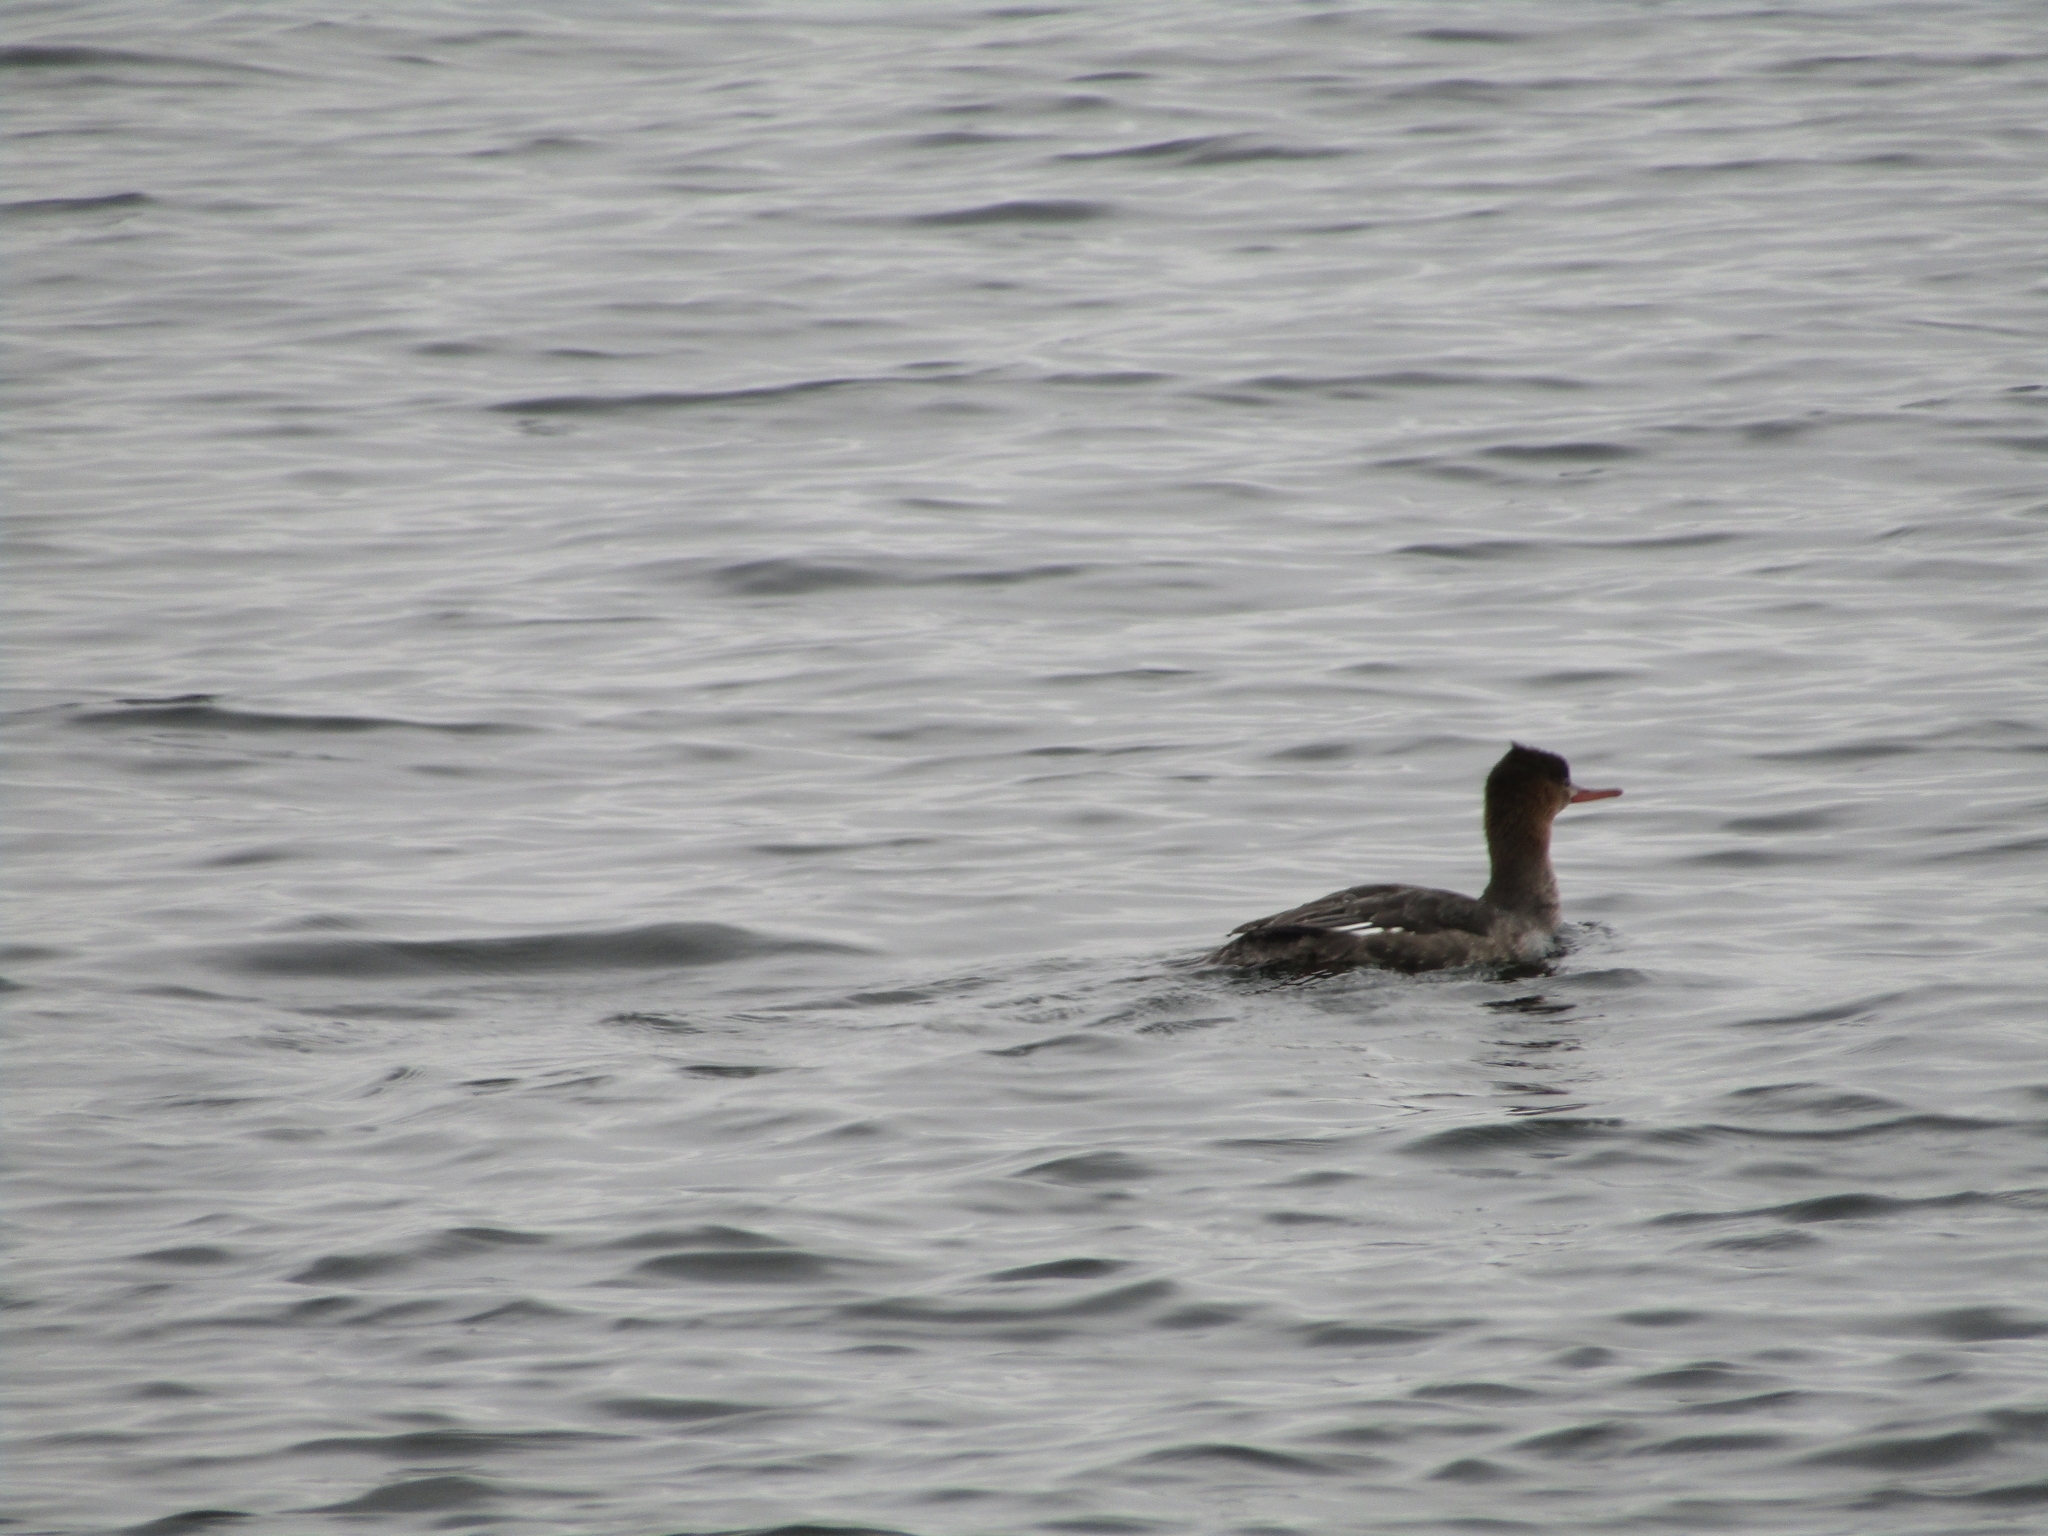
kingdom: Animalia
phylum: Chordata
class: Aves
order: Anseriformes
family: Anatidae
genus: Mergus
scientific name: Mergus serrator
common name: Red-breasted merganser
